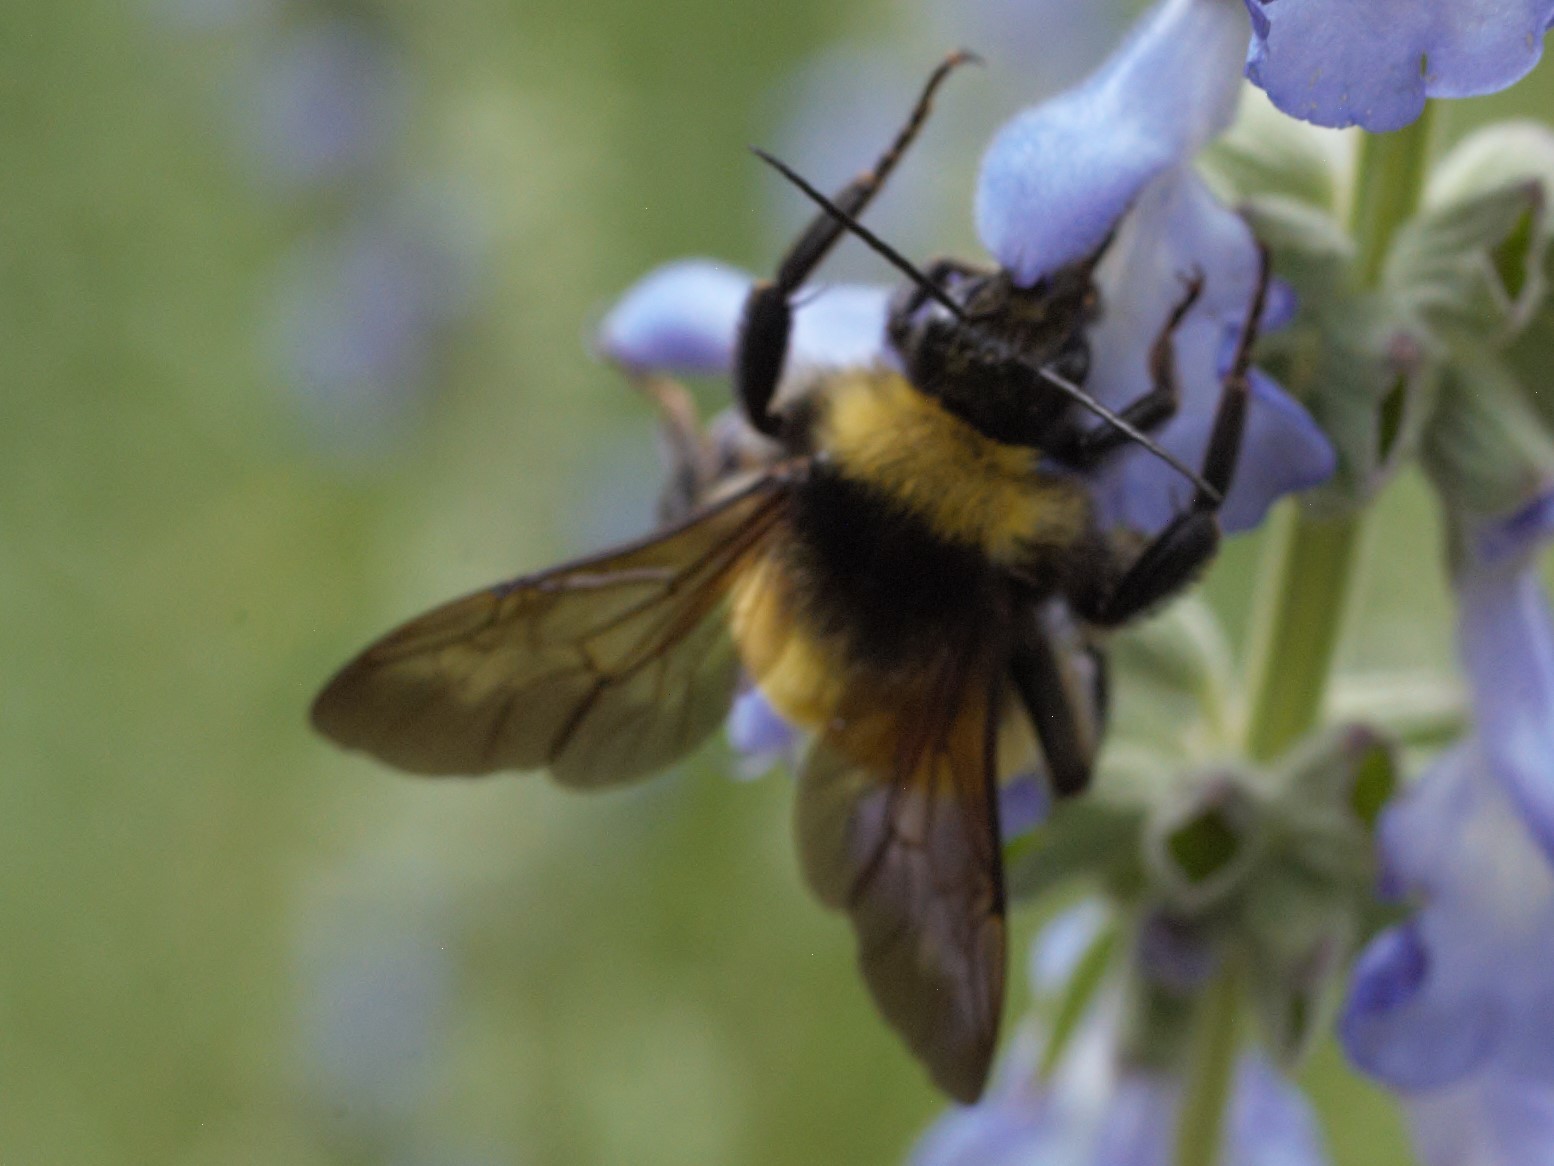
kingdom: Animalia
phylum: Arthropoda
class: Insecta
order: Hymenoptera
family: Apidae
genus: Bombus
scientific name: Bombus pensylvanicus
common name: Bumble bee
